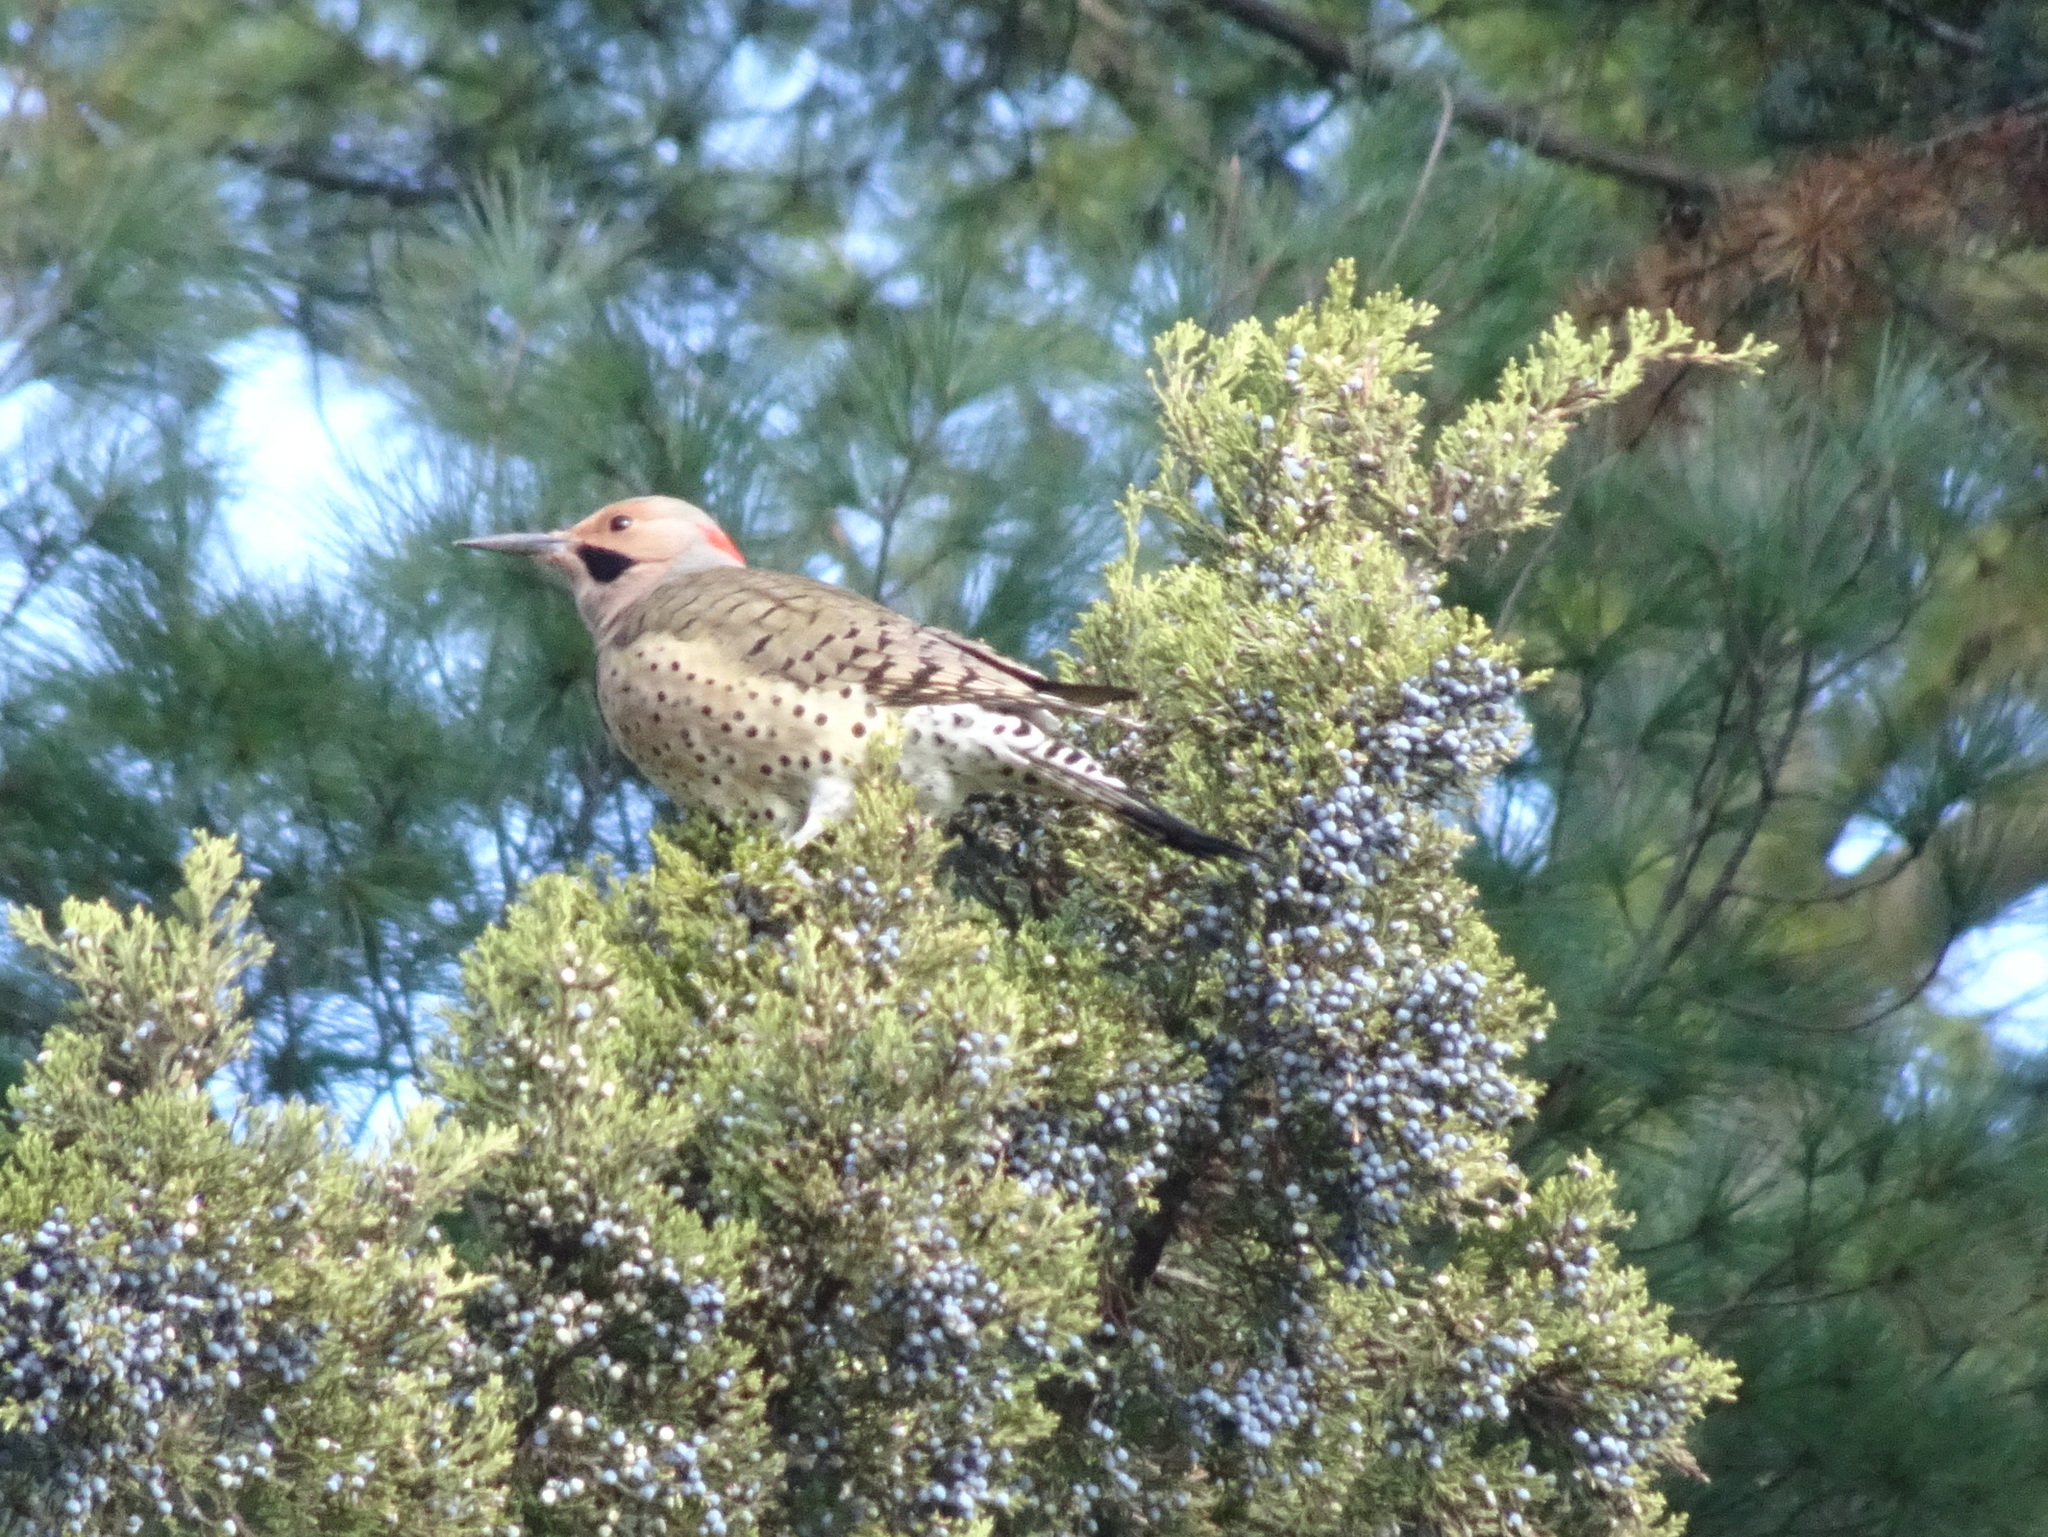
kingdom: Animalia
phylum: Chordata
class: Aves
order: Piciformes
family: Picidae
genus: Colaptes
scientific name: Colaptes auratus
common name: Northern flicker
